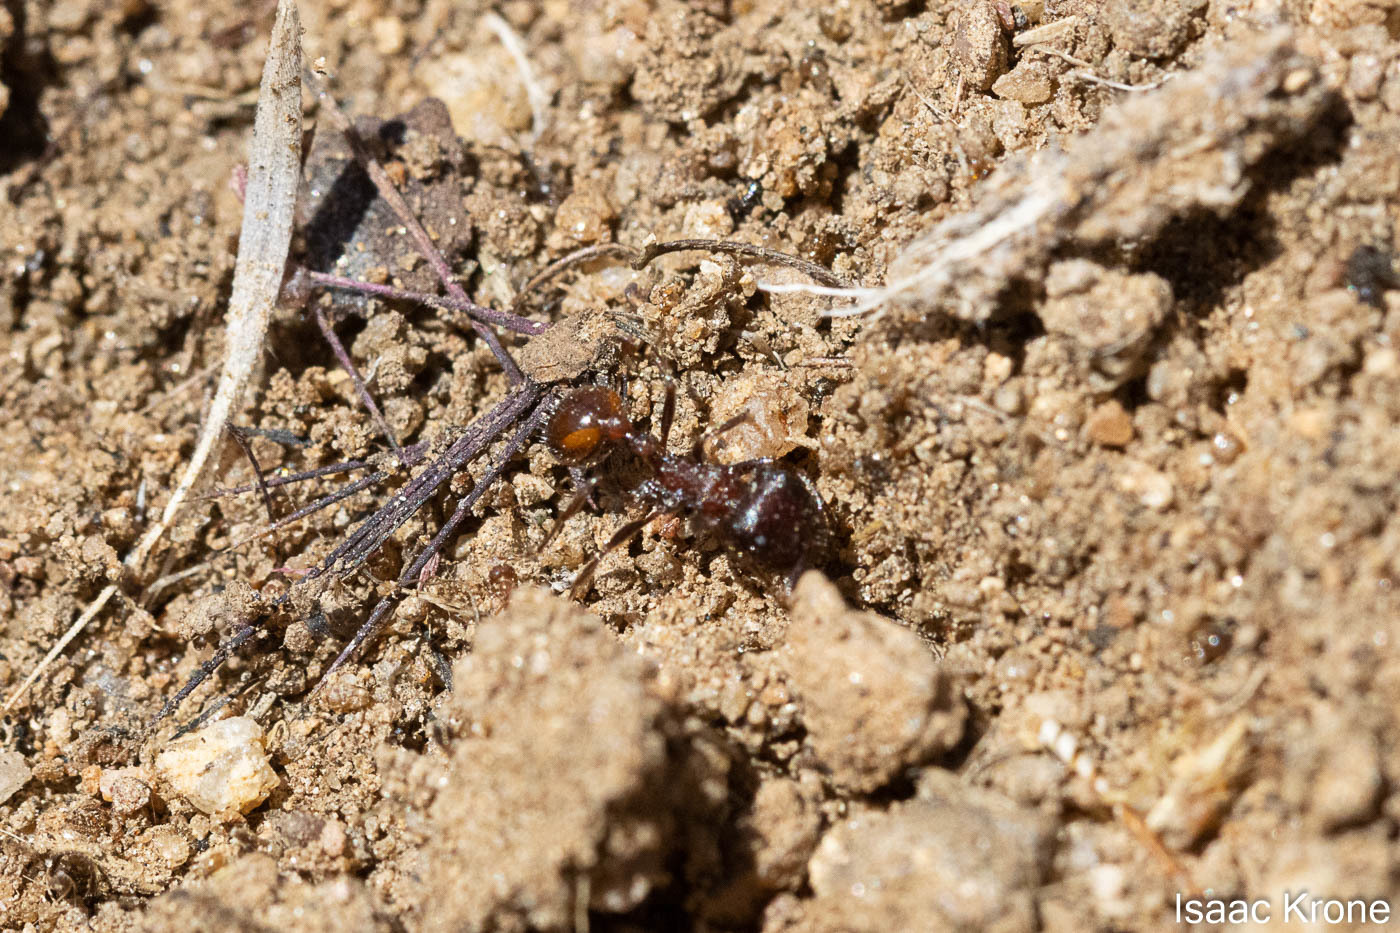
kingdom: Animalia
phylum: Arthropoda
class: Insecta
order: Hymenoptera
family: Formicidae
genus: Pogonomyrmex
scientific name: Pogonomyrmex rugosus
